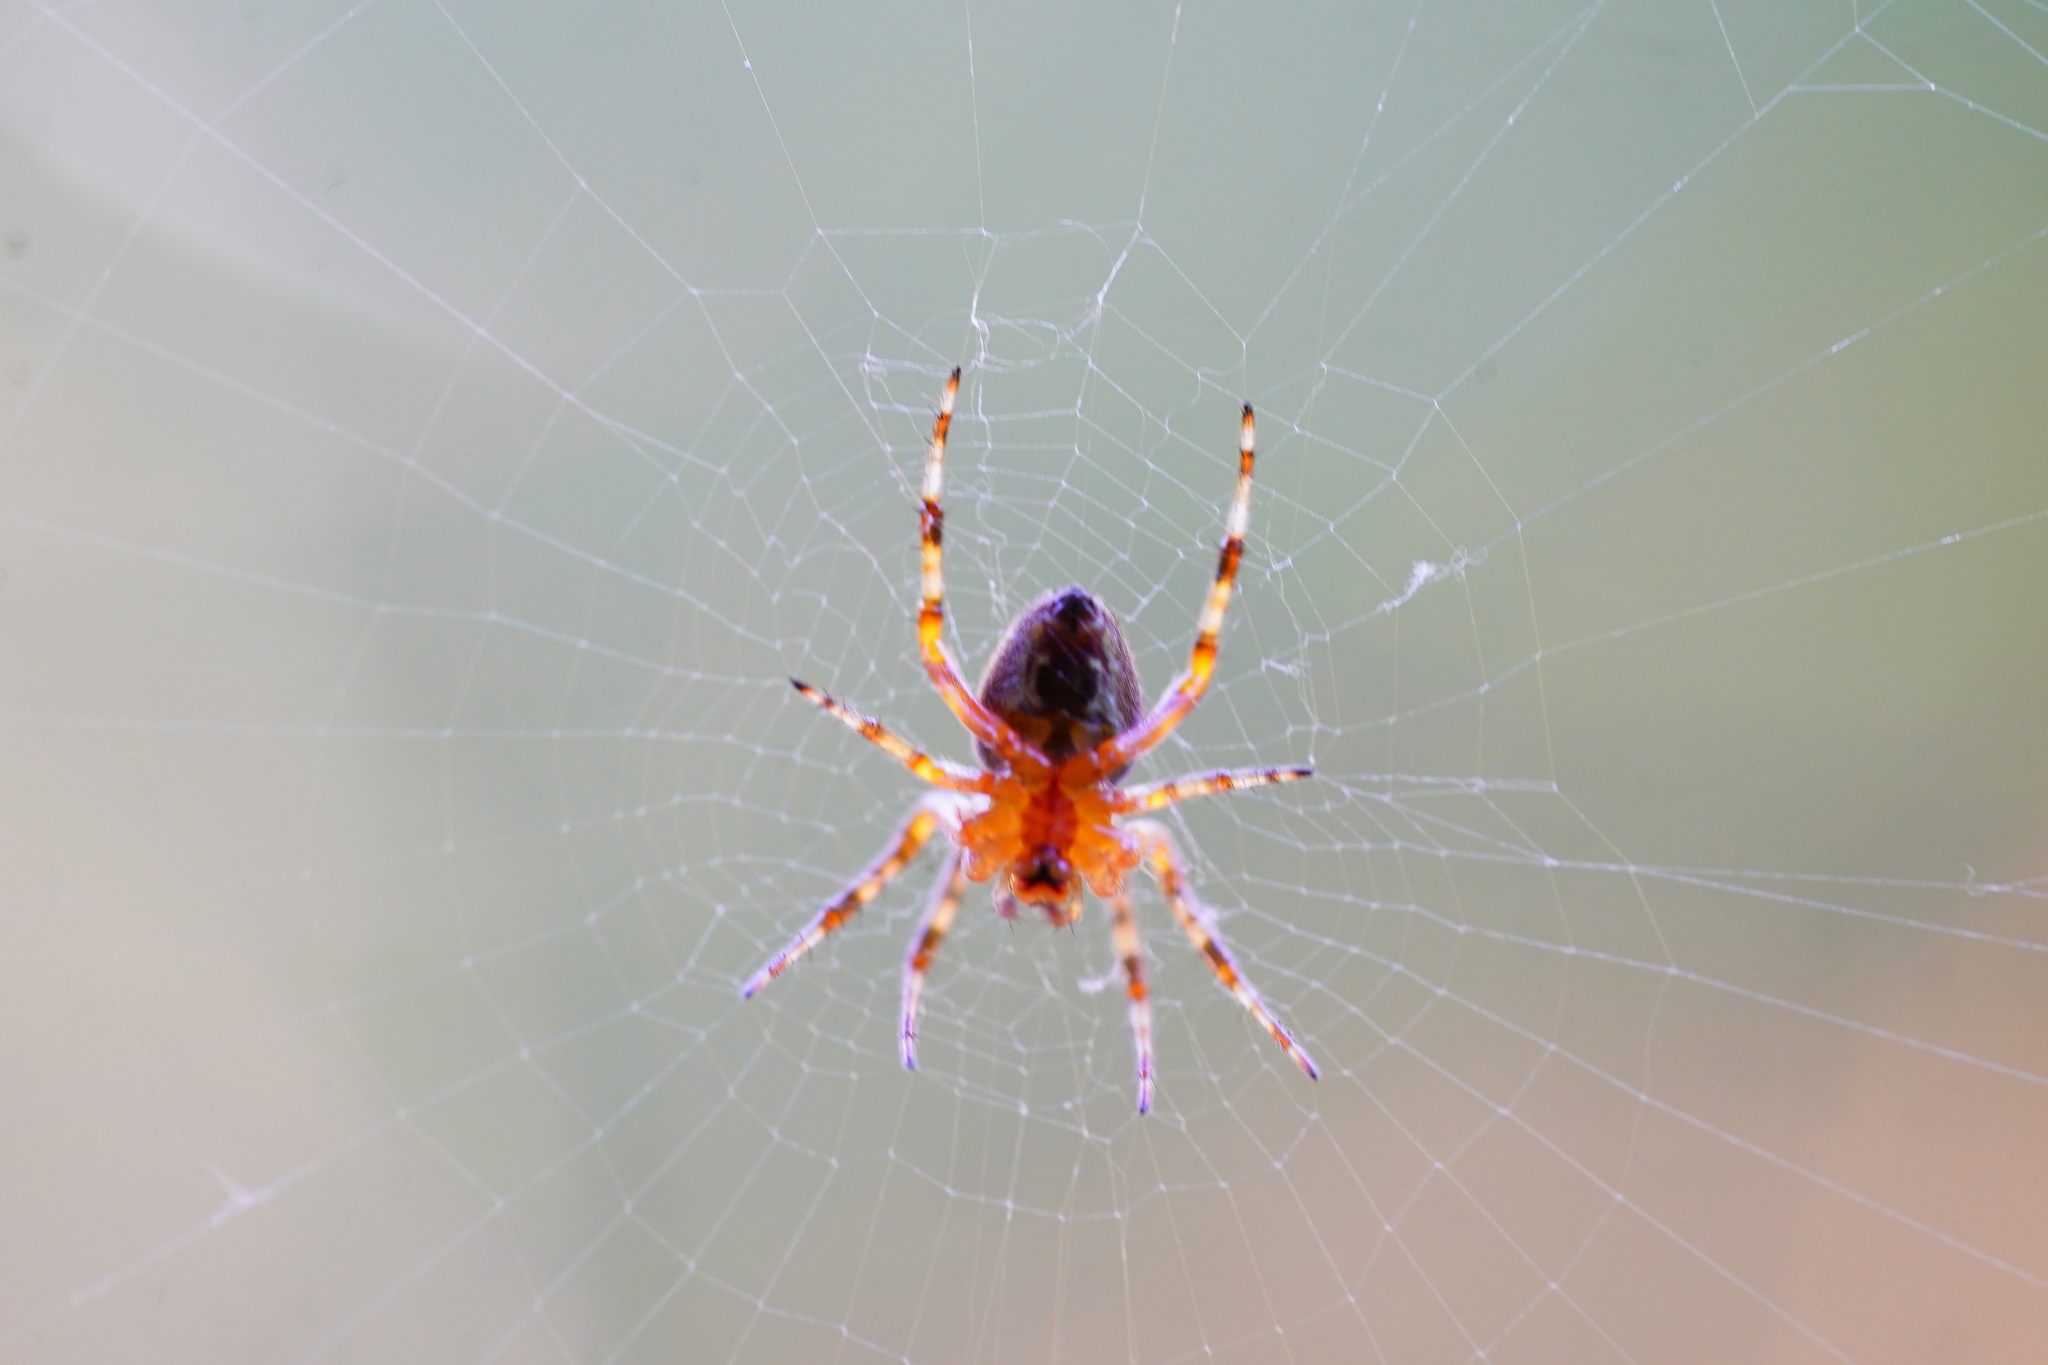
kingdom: Animalia
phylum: Arthropoda
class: Arachnida
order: Araneae
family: Araneidae
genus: Araneus
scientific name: Araneus diadematus
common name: Cross orbweaver
